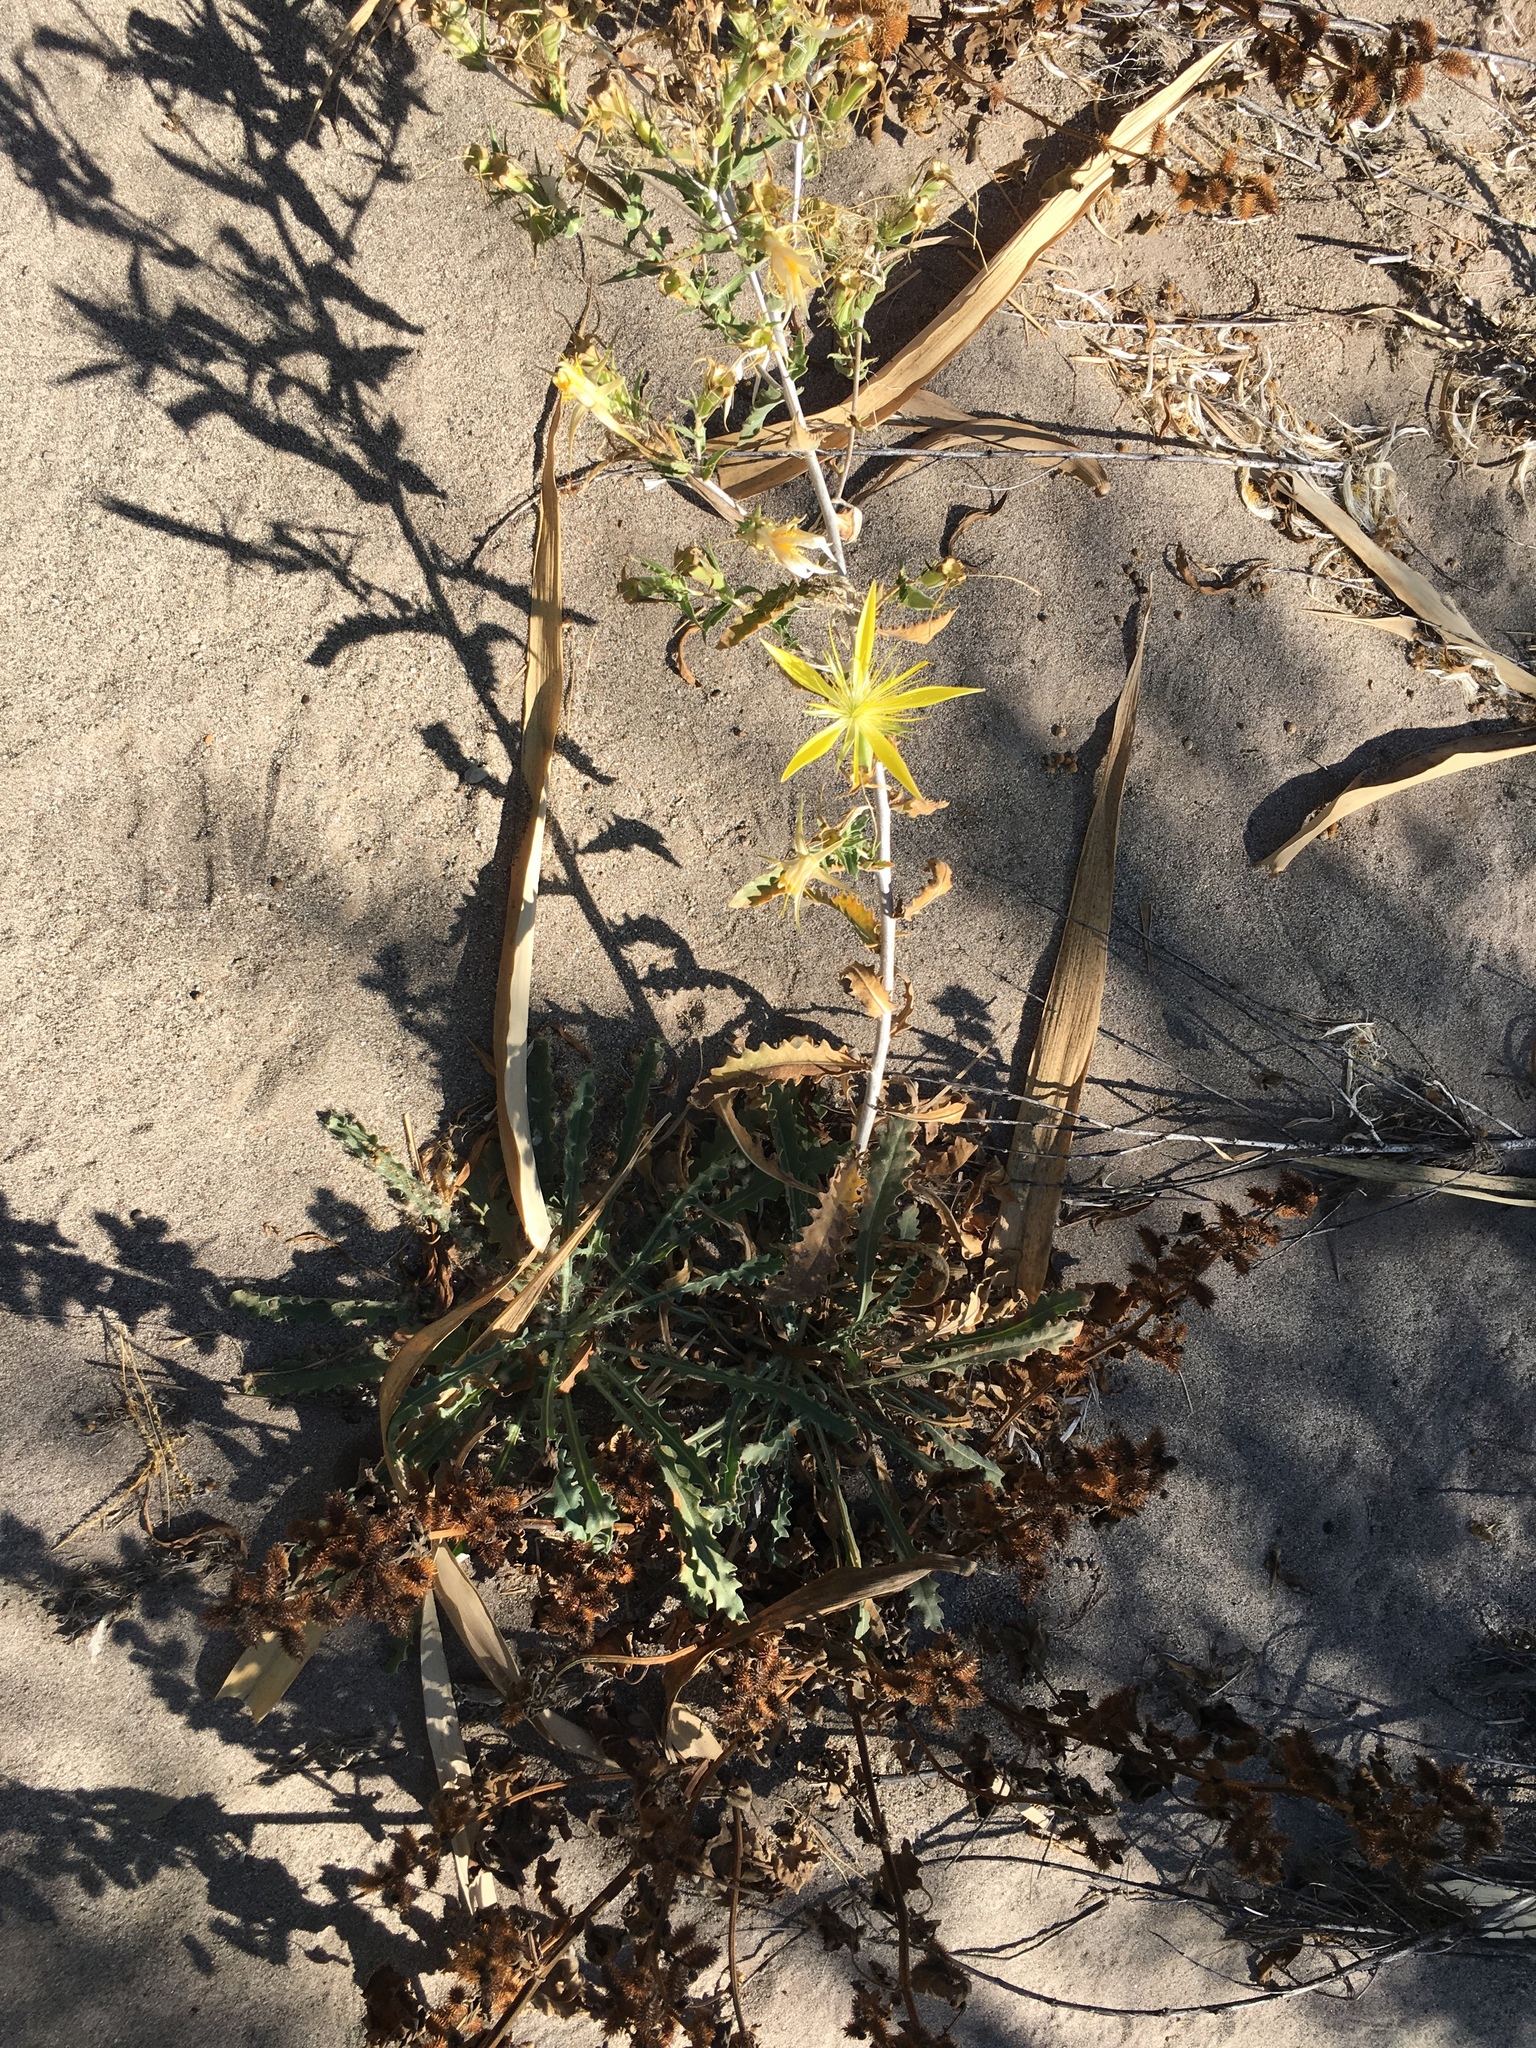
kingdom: Plantae
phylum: Tracheophyta
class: Magnoliopsida
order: Cornales
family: Loasaceae
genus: Mentzelia
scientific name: Mentzelia laevicaulis
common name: Smooth-stem blazingstar
